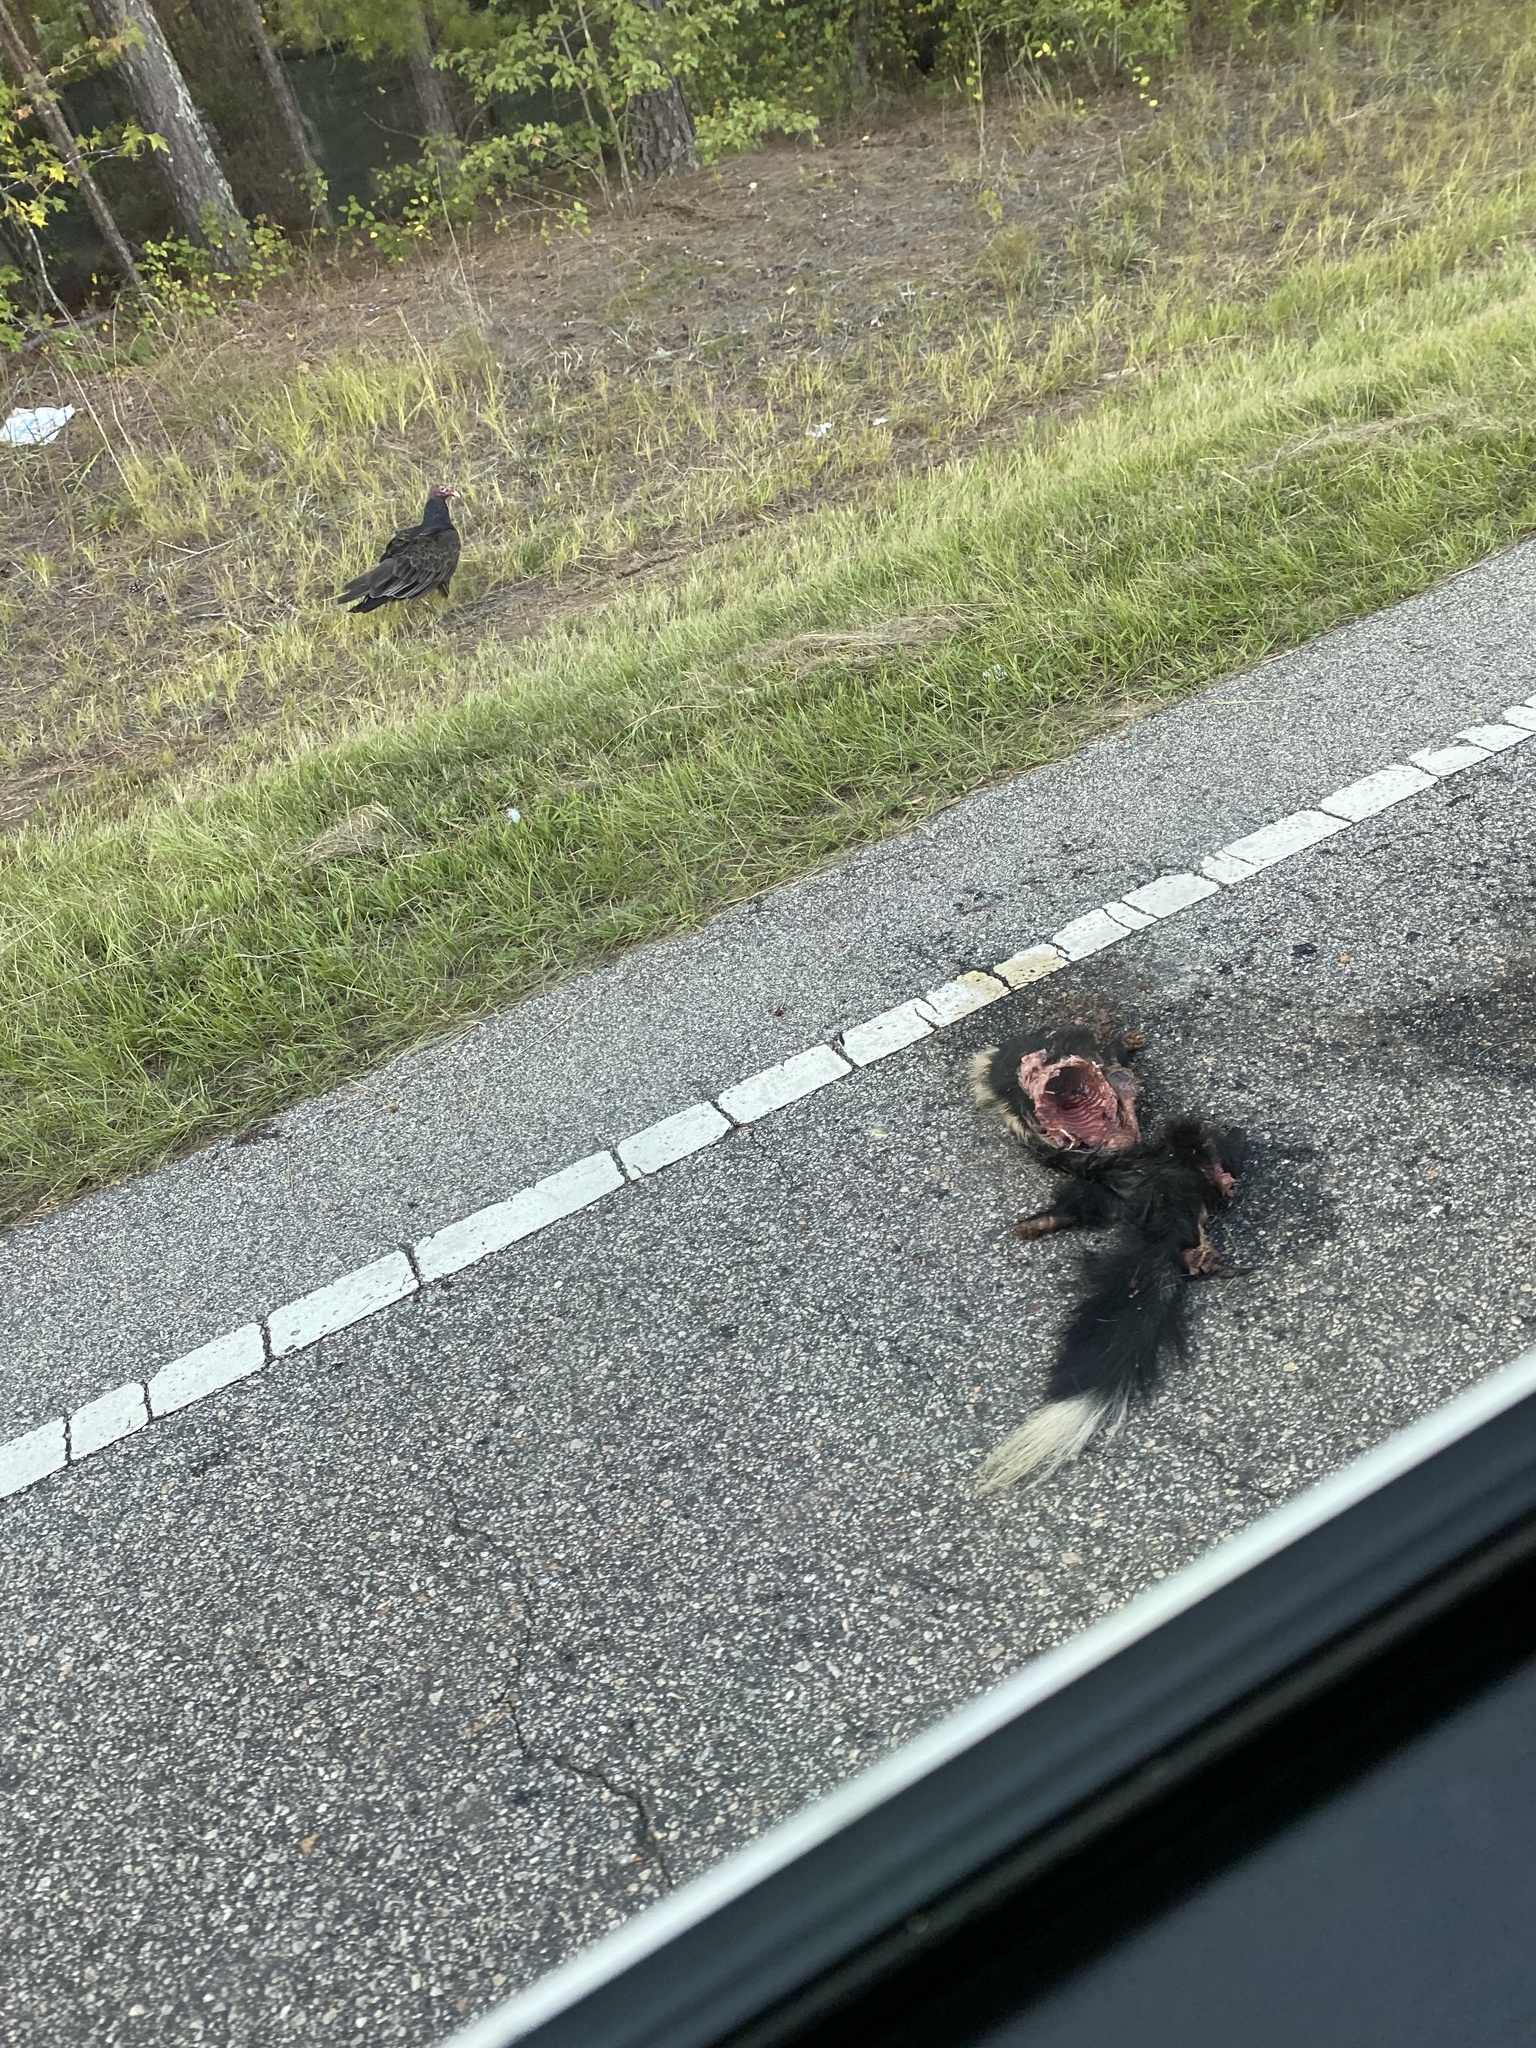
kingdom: Animalia
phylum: Chordata
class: Mammalia
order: Carnivora
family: Mephitidae
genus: Mephitis
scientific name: Mephitis mephitis
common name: Striped skunk
